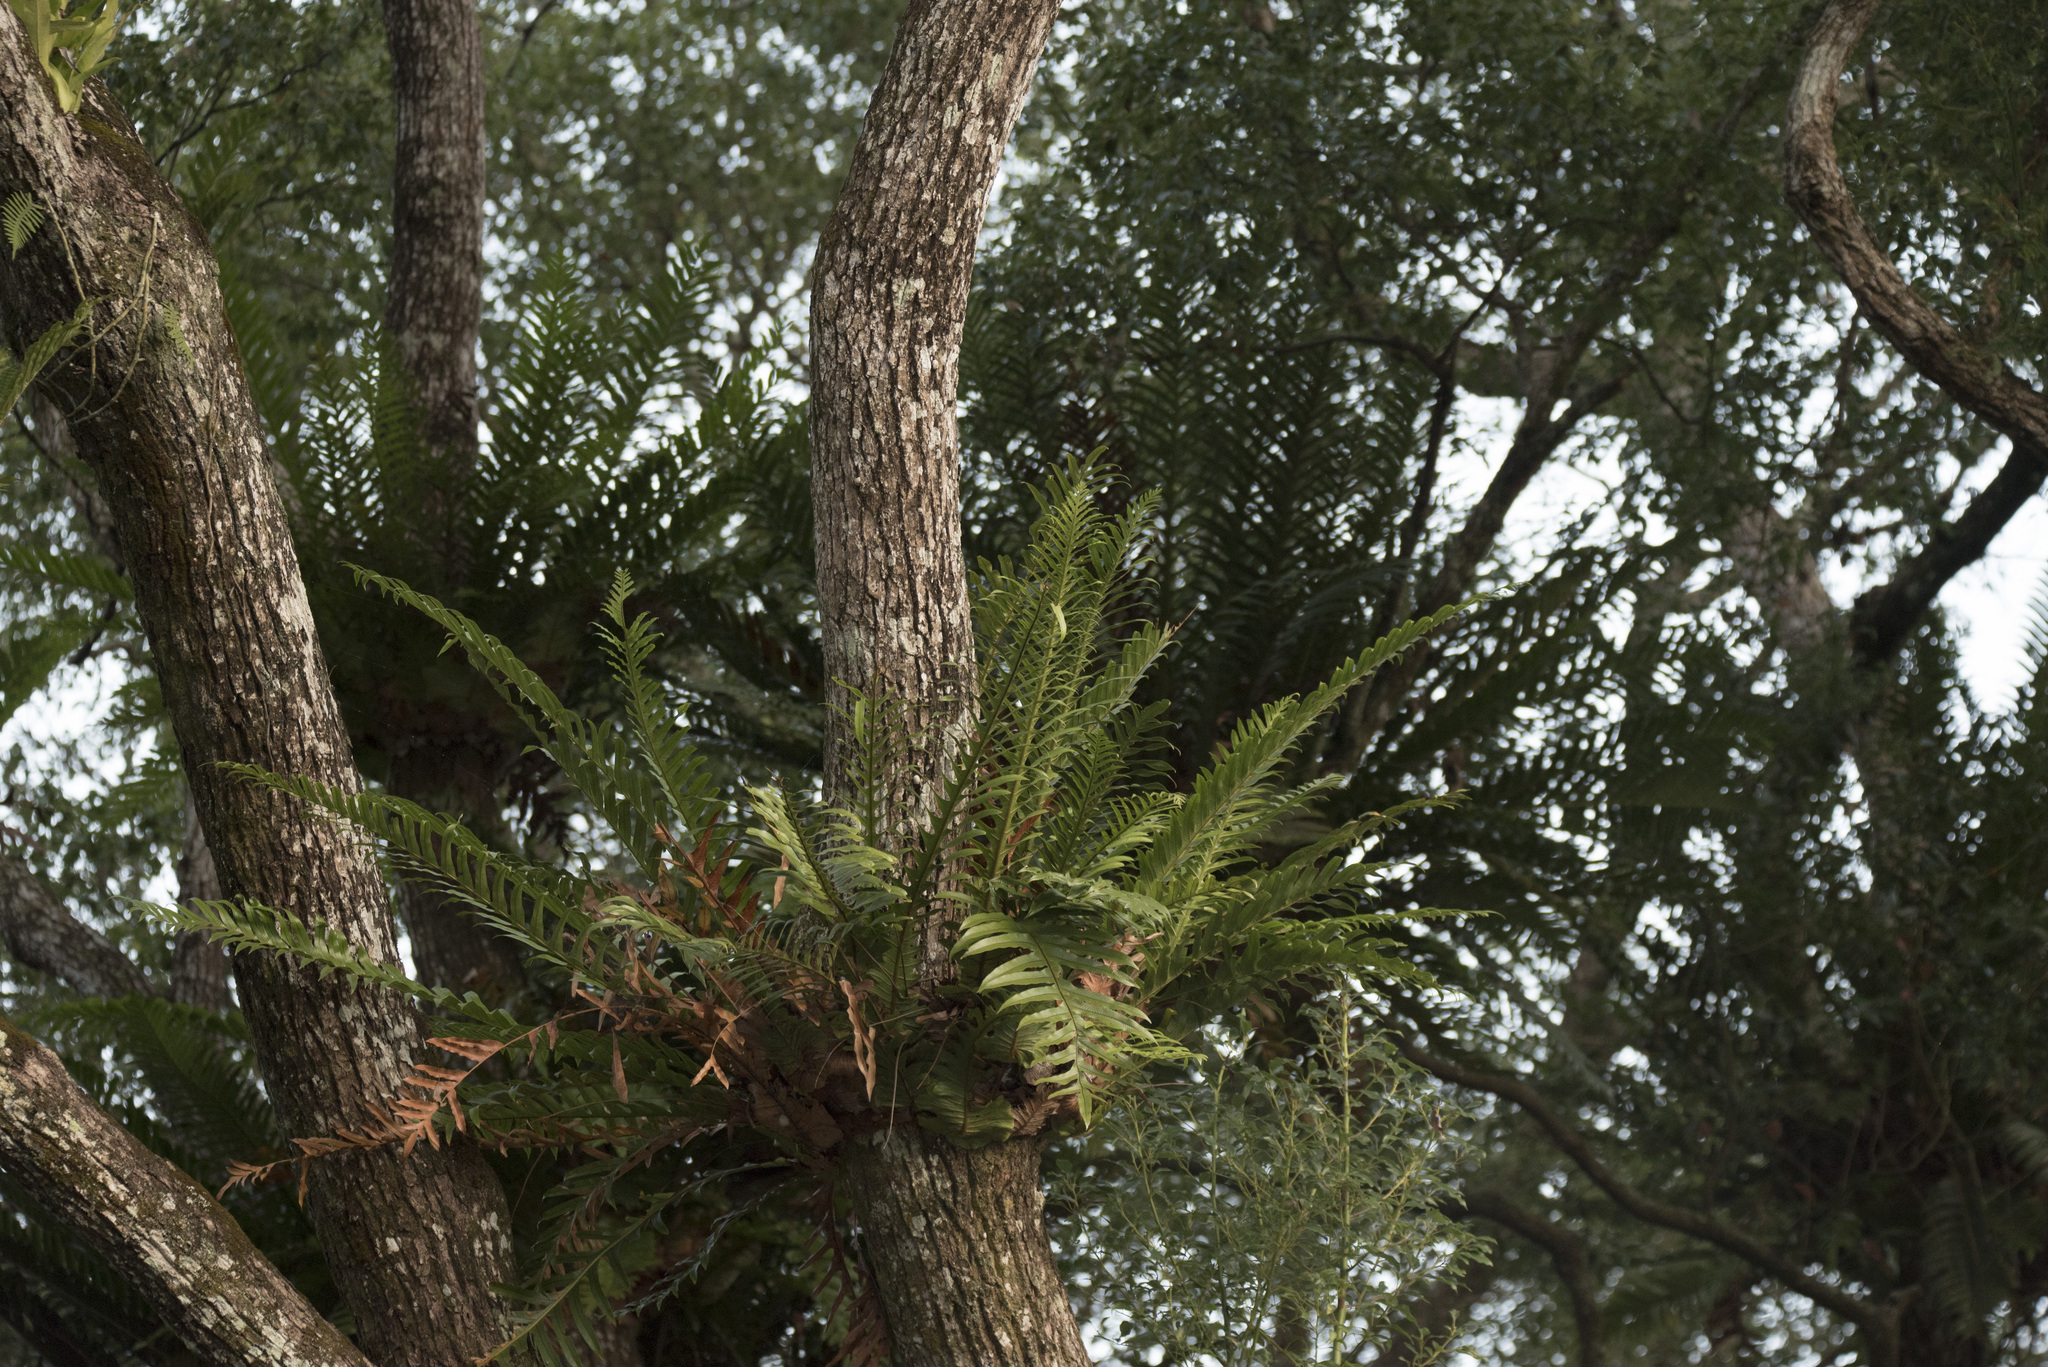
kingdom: Plantae
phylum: Tracheophyta
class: Polypodiopsida
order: Polypodiales
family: Polypodiaceae
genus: Drynaria
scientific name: Drynaria coronans
